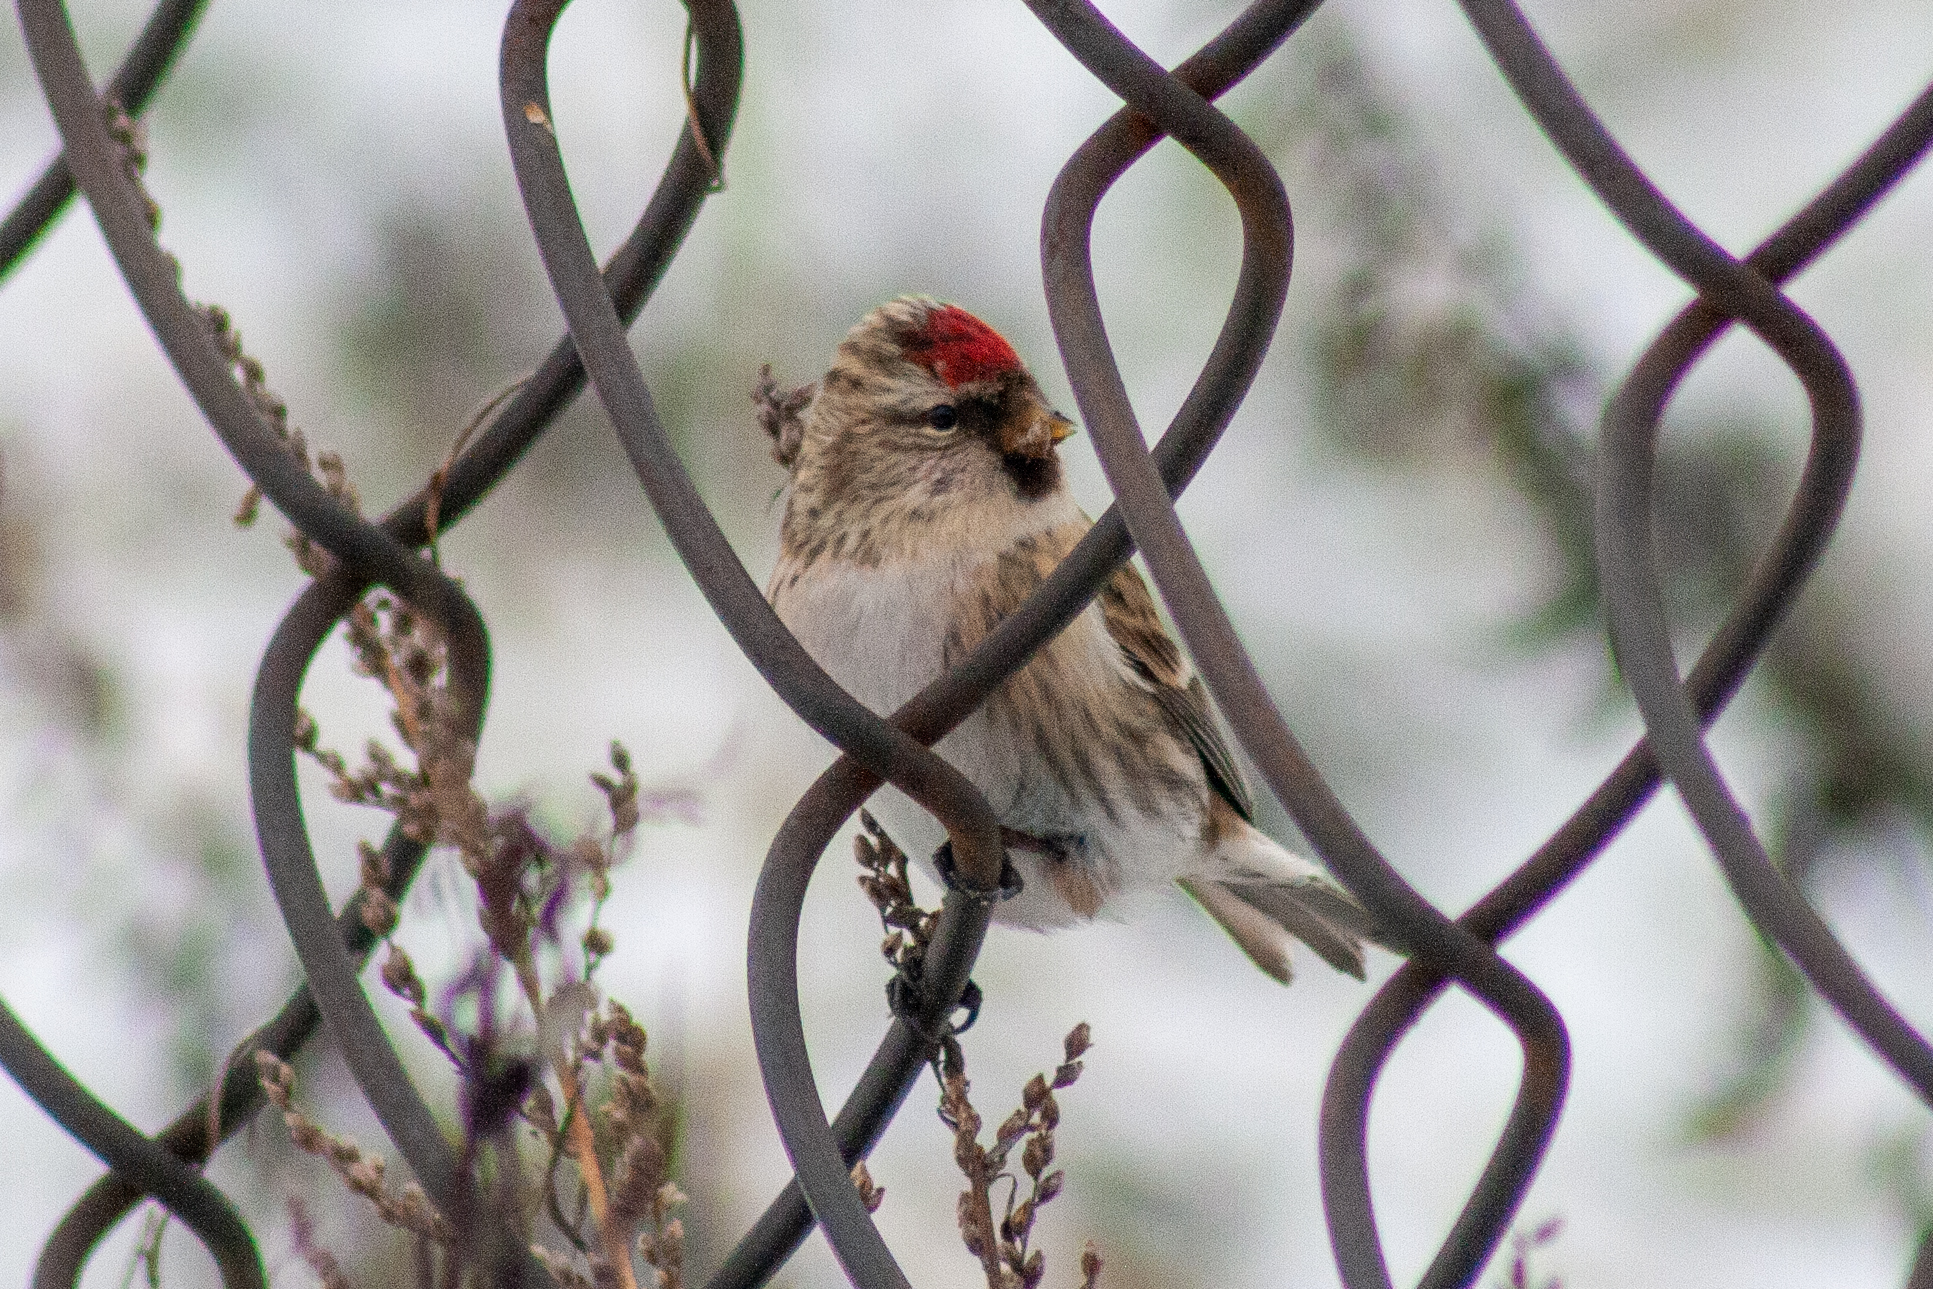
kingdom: Animalia
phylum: Chordata
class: Aves
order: Passeriformes
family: Fringillidae
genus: Acanthis
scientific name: Acanthis flammea
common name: Common redpoll
